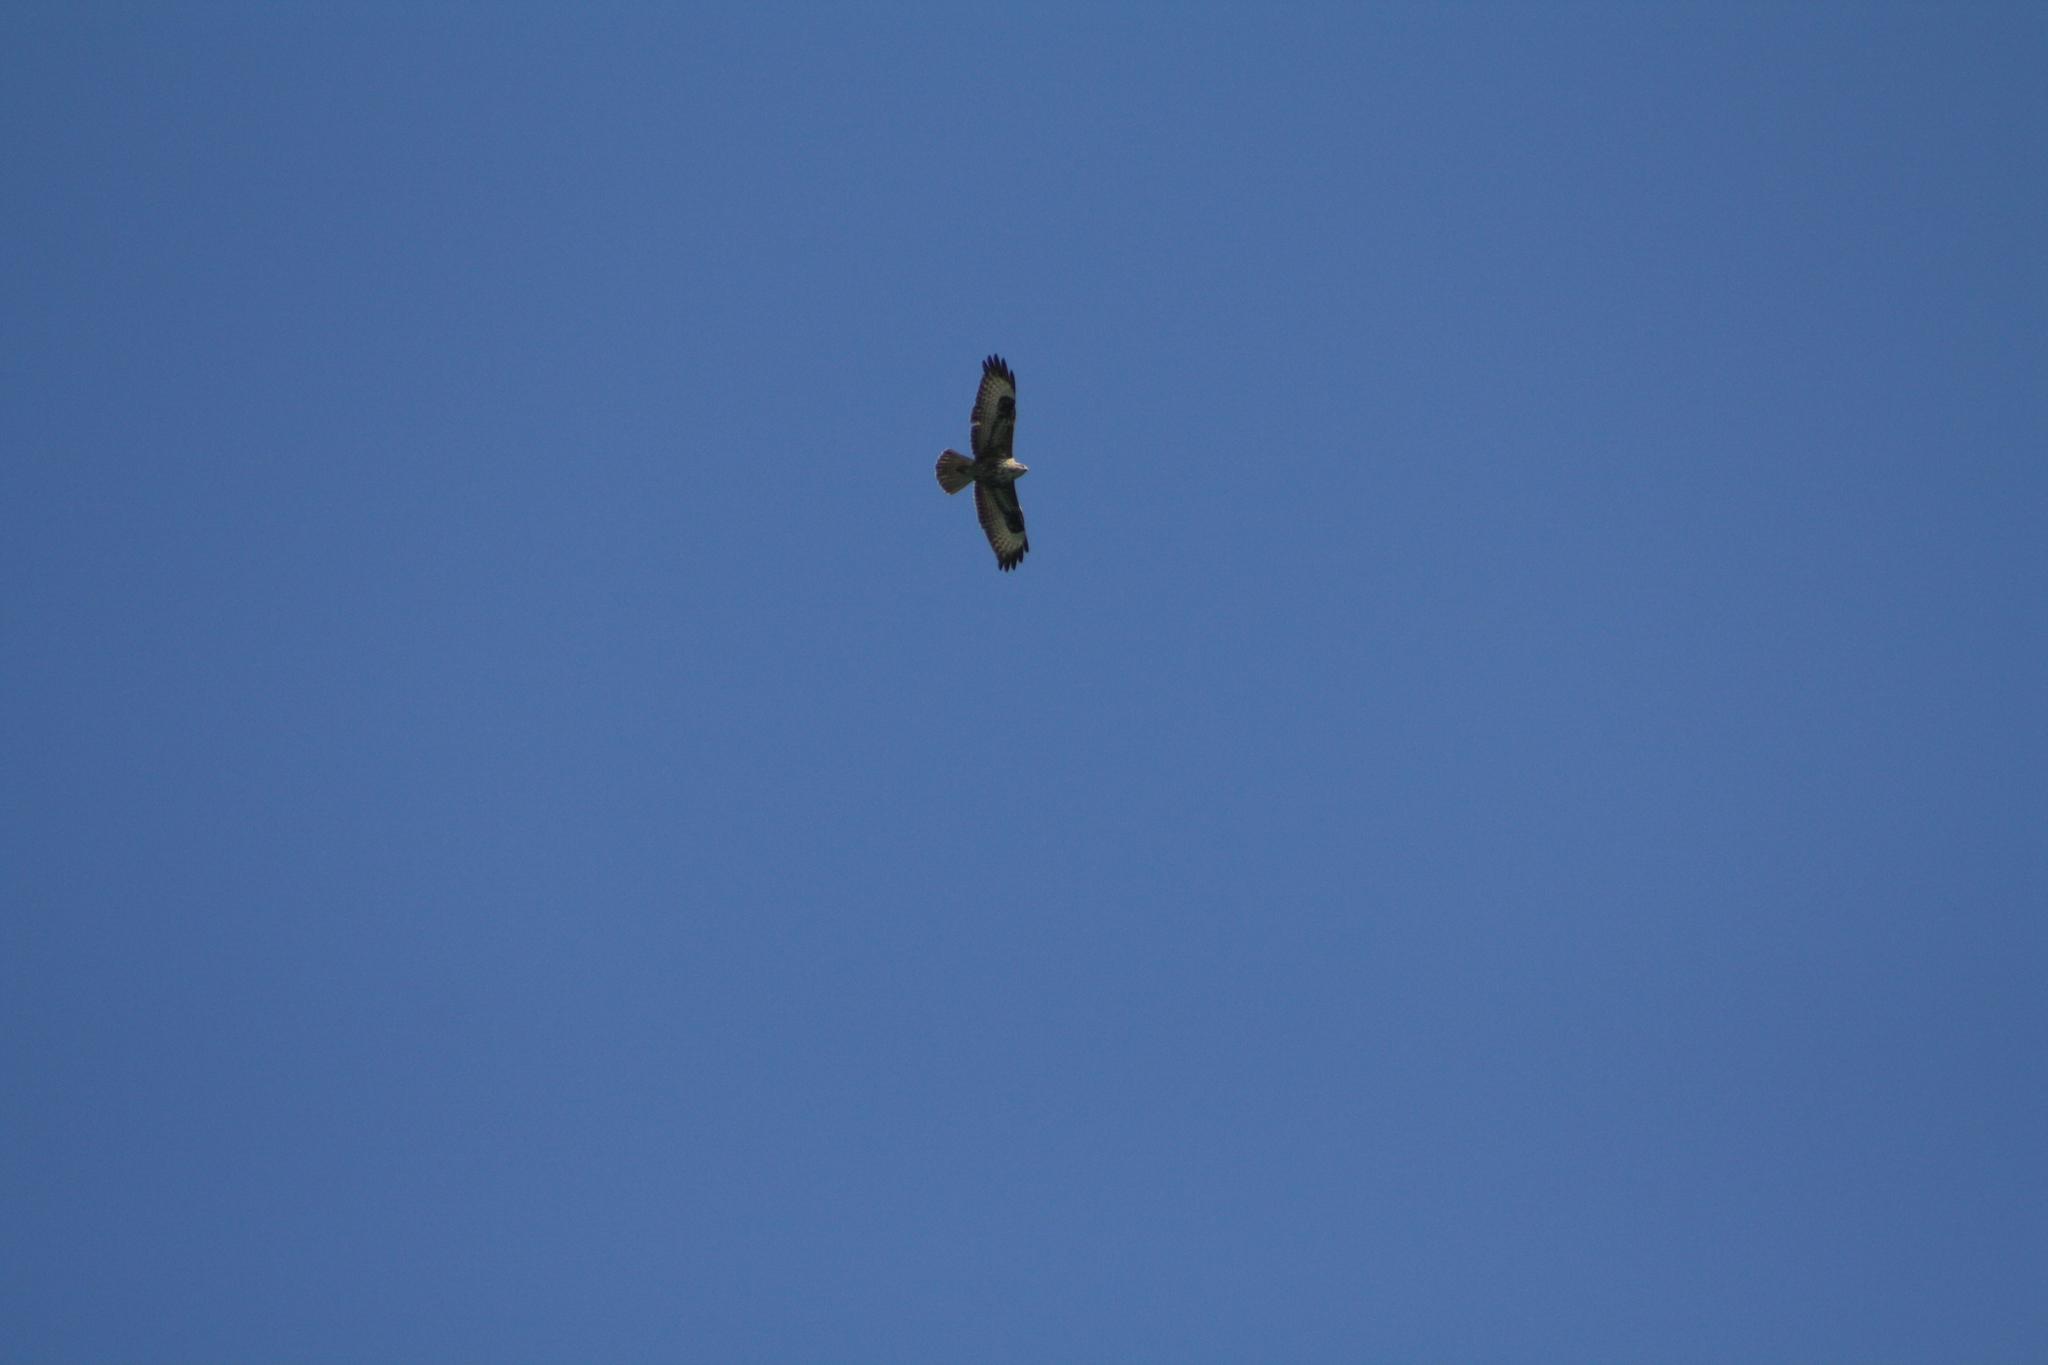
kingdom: Animalia
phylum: Chordata
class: Aves
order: Accipitriformes
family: Accipitridae
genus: Buteo
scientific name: Buteo buteo
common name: Common buzzard
